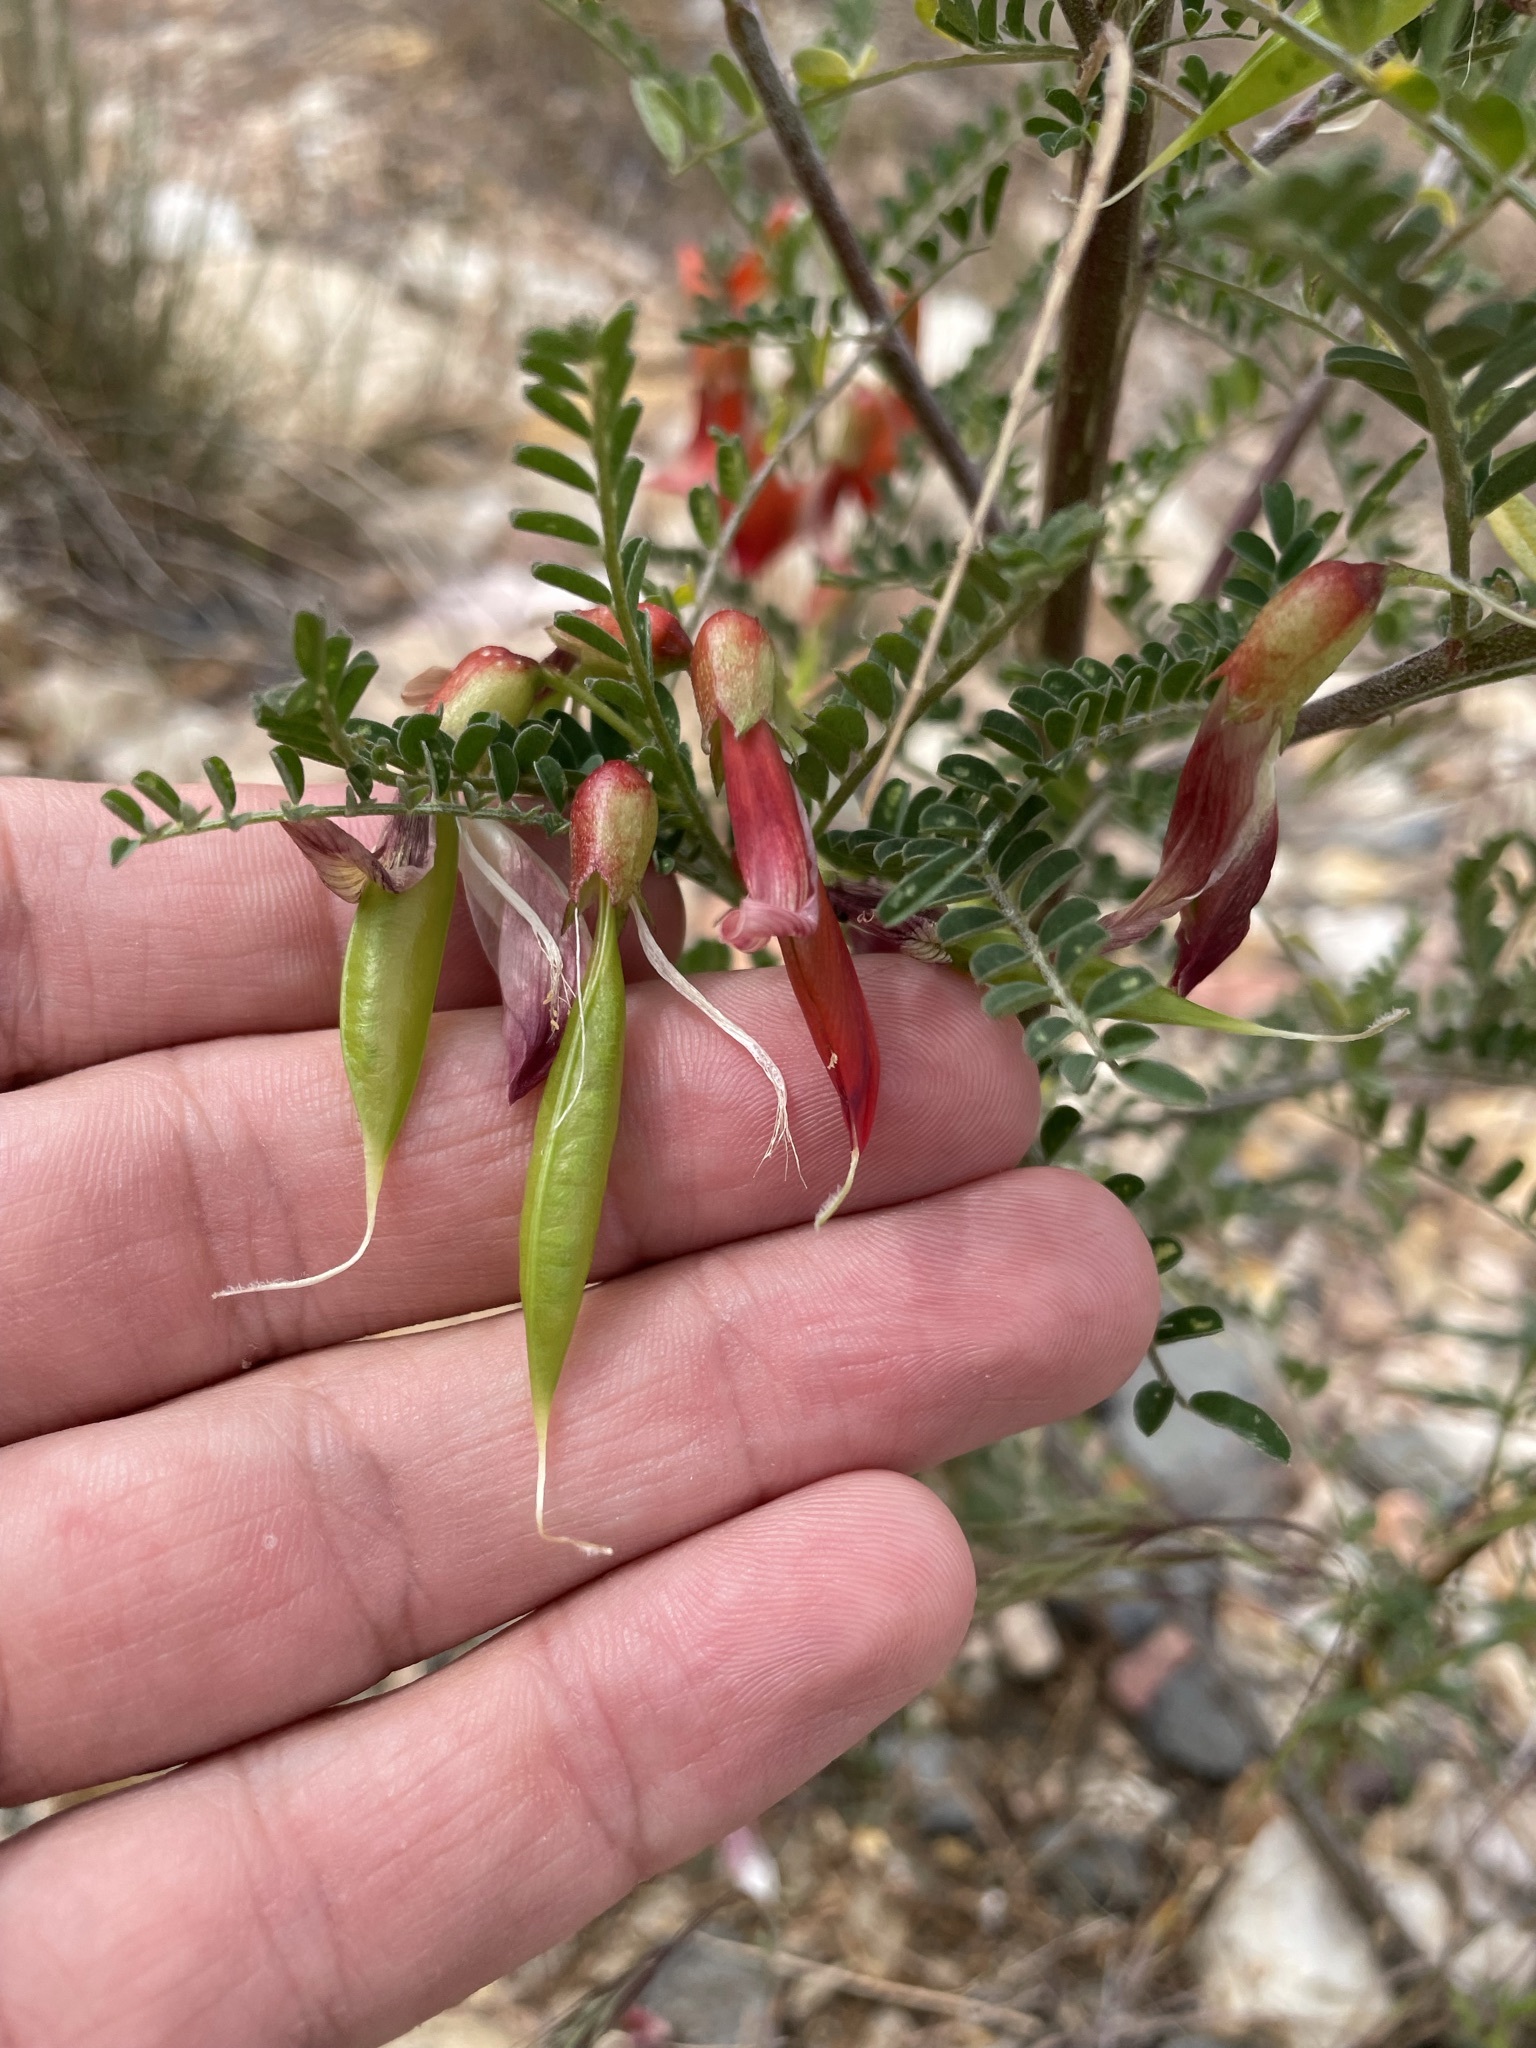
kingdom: Plantae
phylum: Tracheophyta
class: Magnoliopsida
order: Fabales
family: Fabaceae
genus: Lessertia
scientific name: Lessertia frutescens
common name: Balloon-pea
